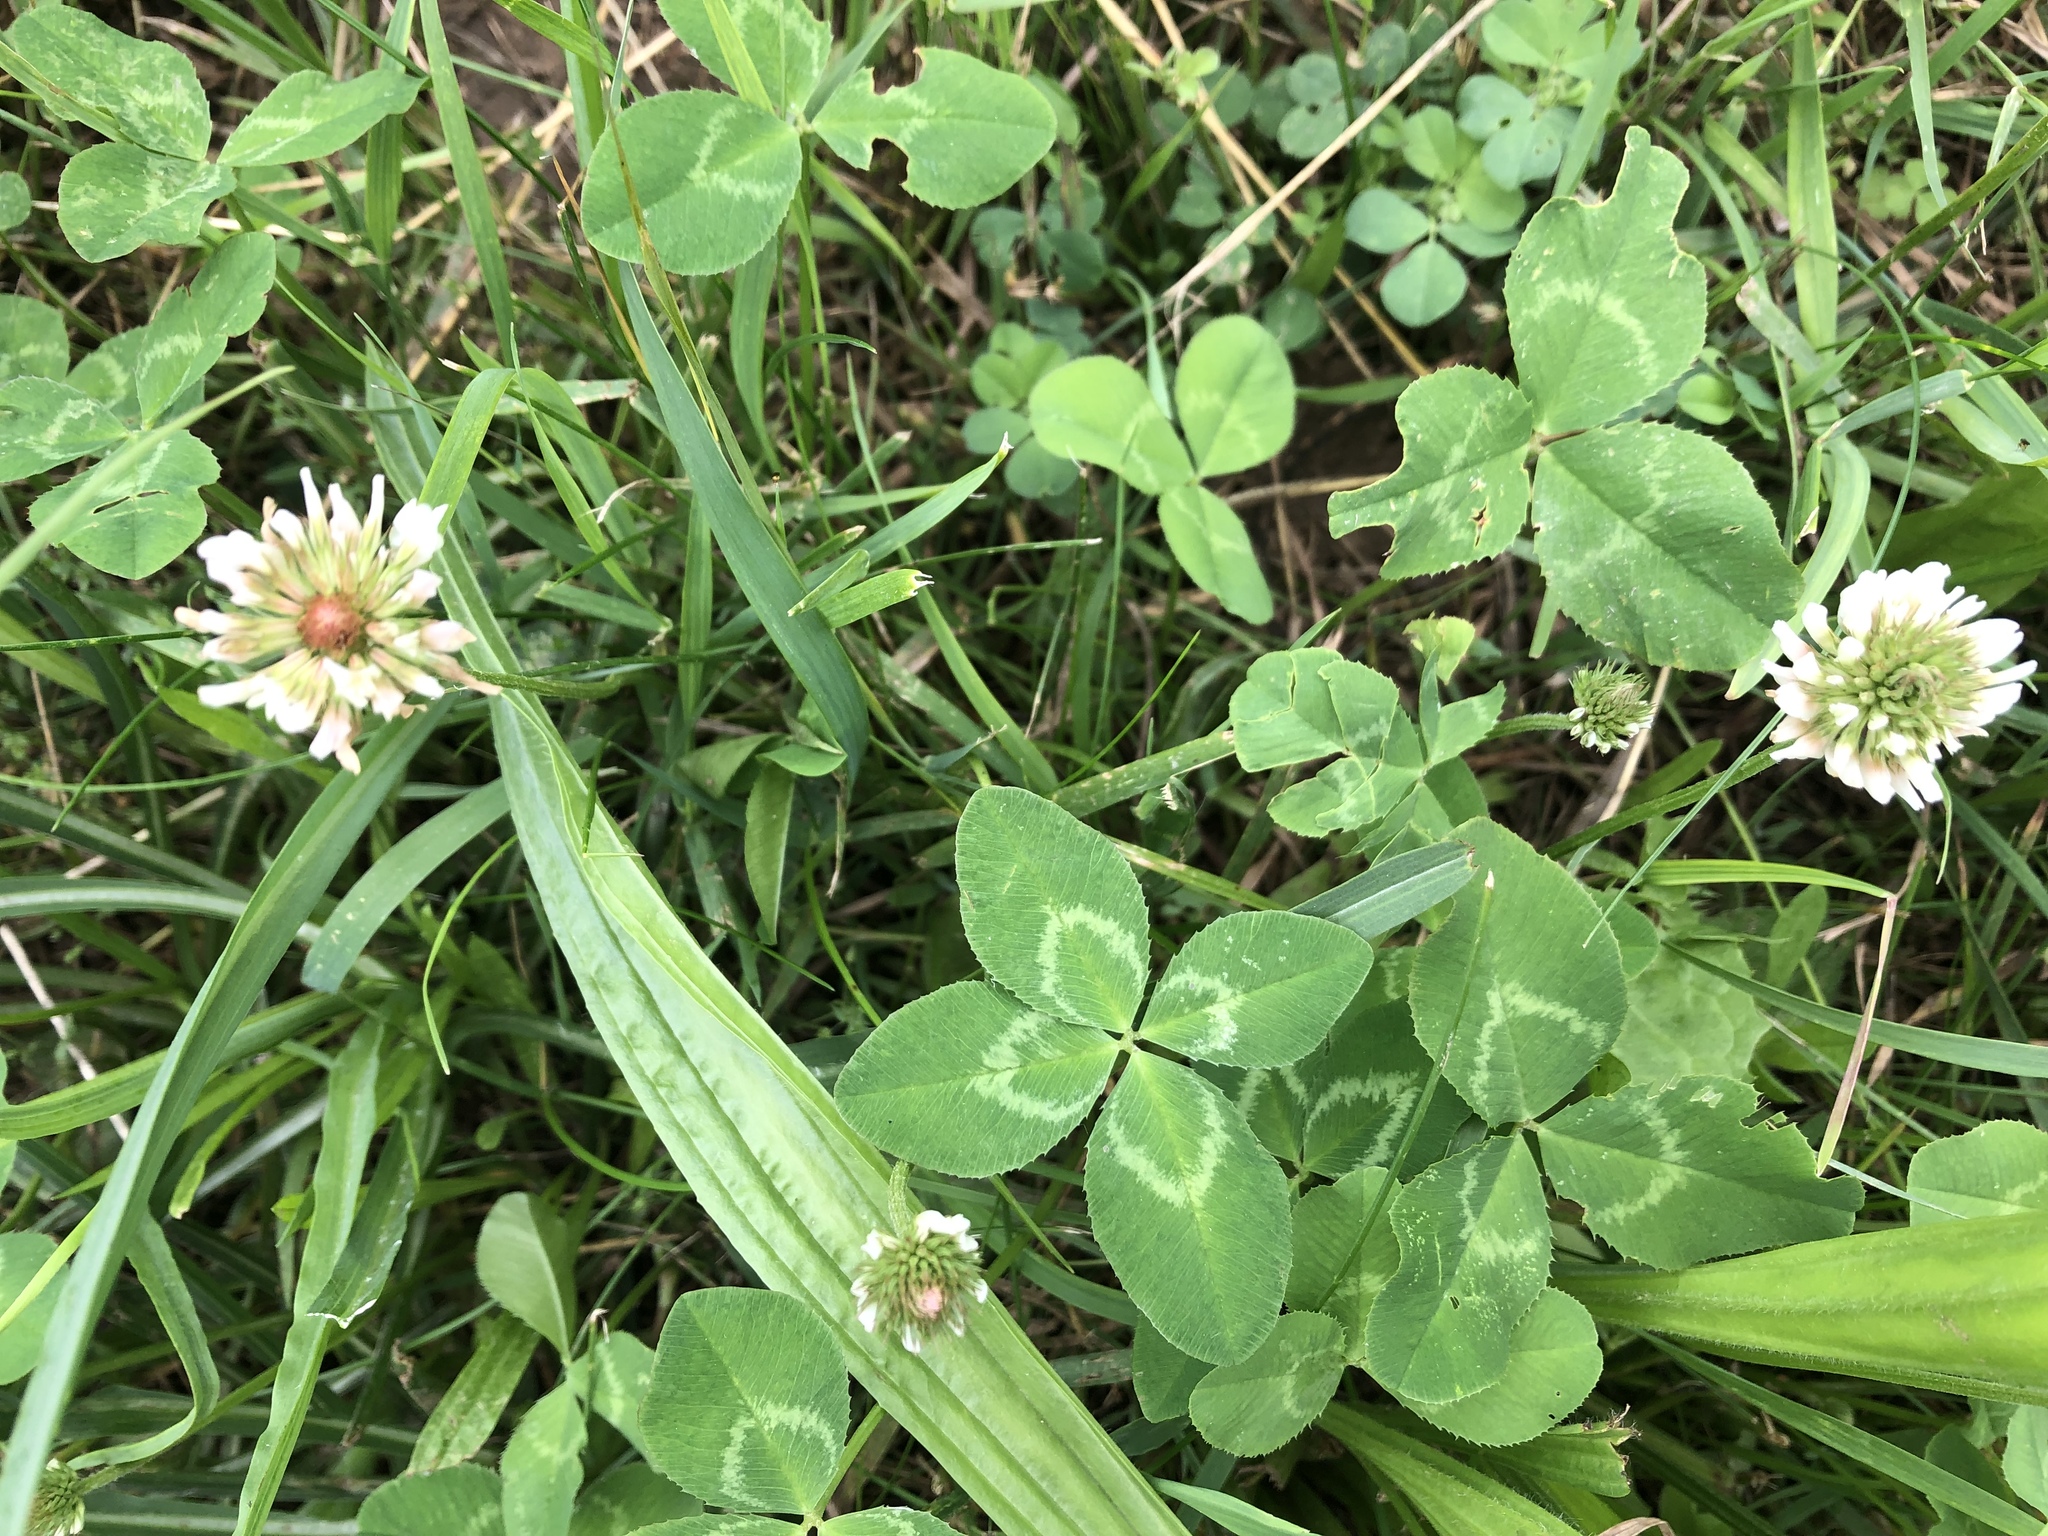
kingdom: Plantae
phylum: Tracheophyta
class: Magnoliopsida
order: Fabales
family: Fabaceae
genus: Trifolium
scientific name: Trifolium repens
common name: White clover
